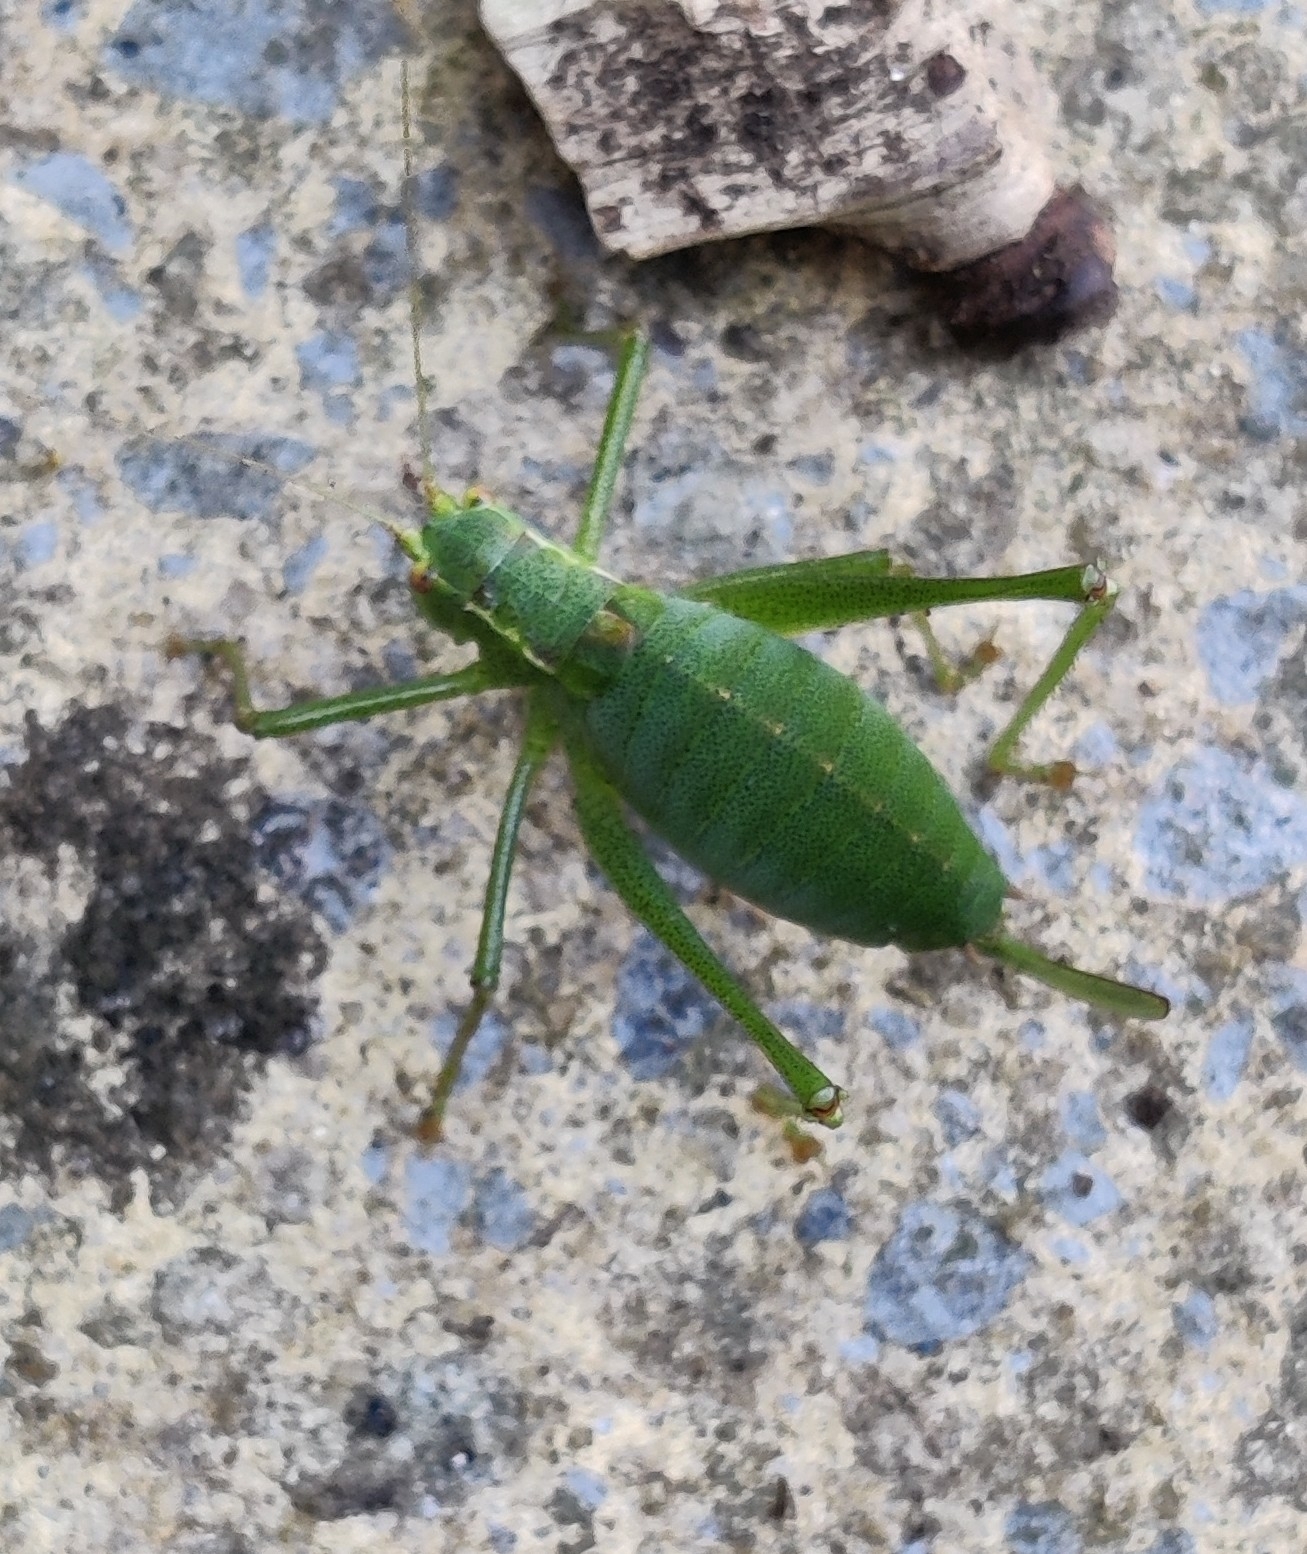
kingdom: Animalia
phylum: Arthropoda
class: Insecta
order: Orthoptera
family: Tettigoniidae
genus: Leptophyes
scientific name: Leptophyes punctatissima
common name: Speckled bush-cricket
